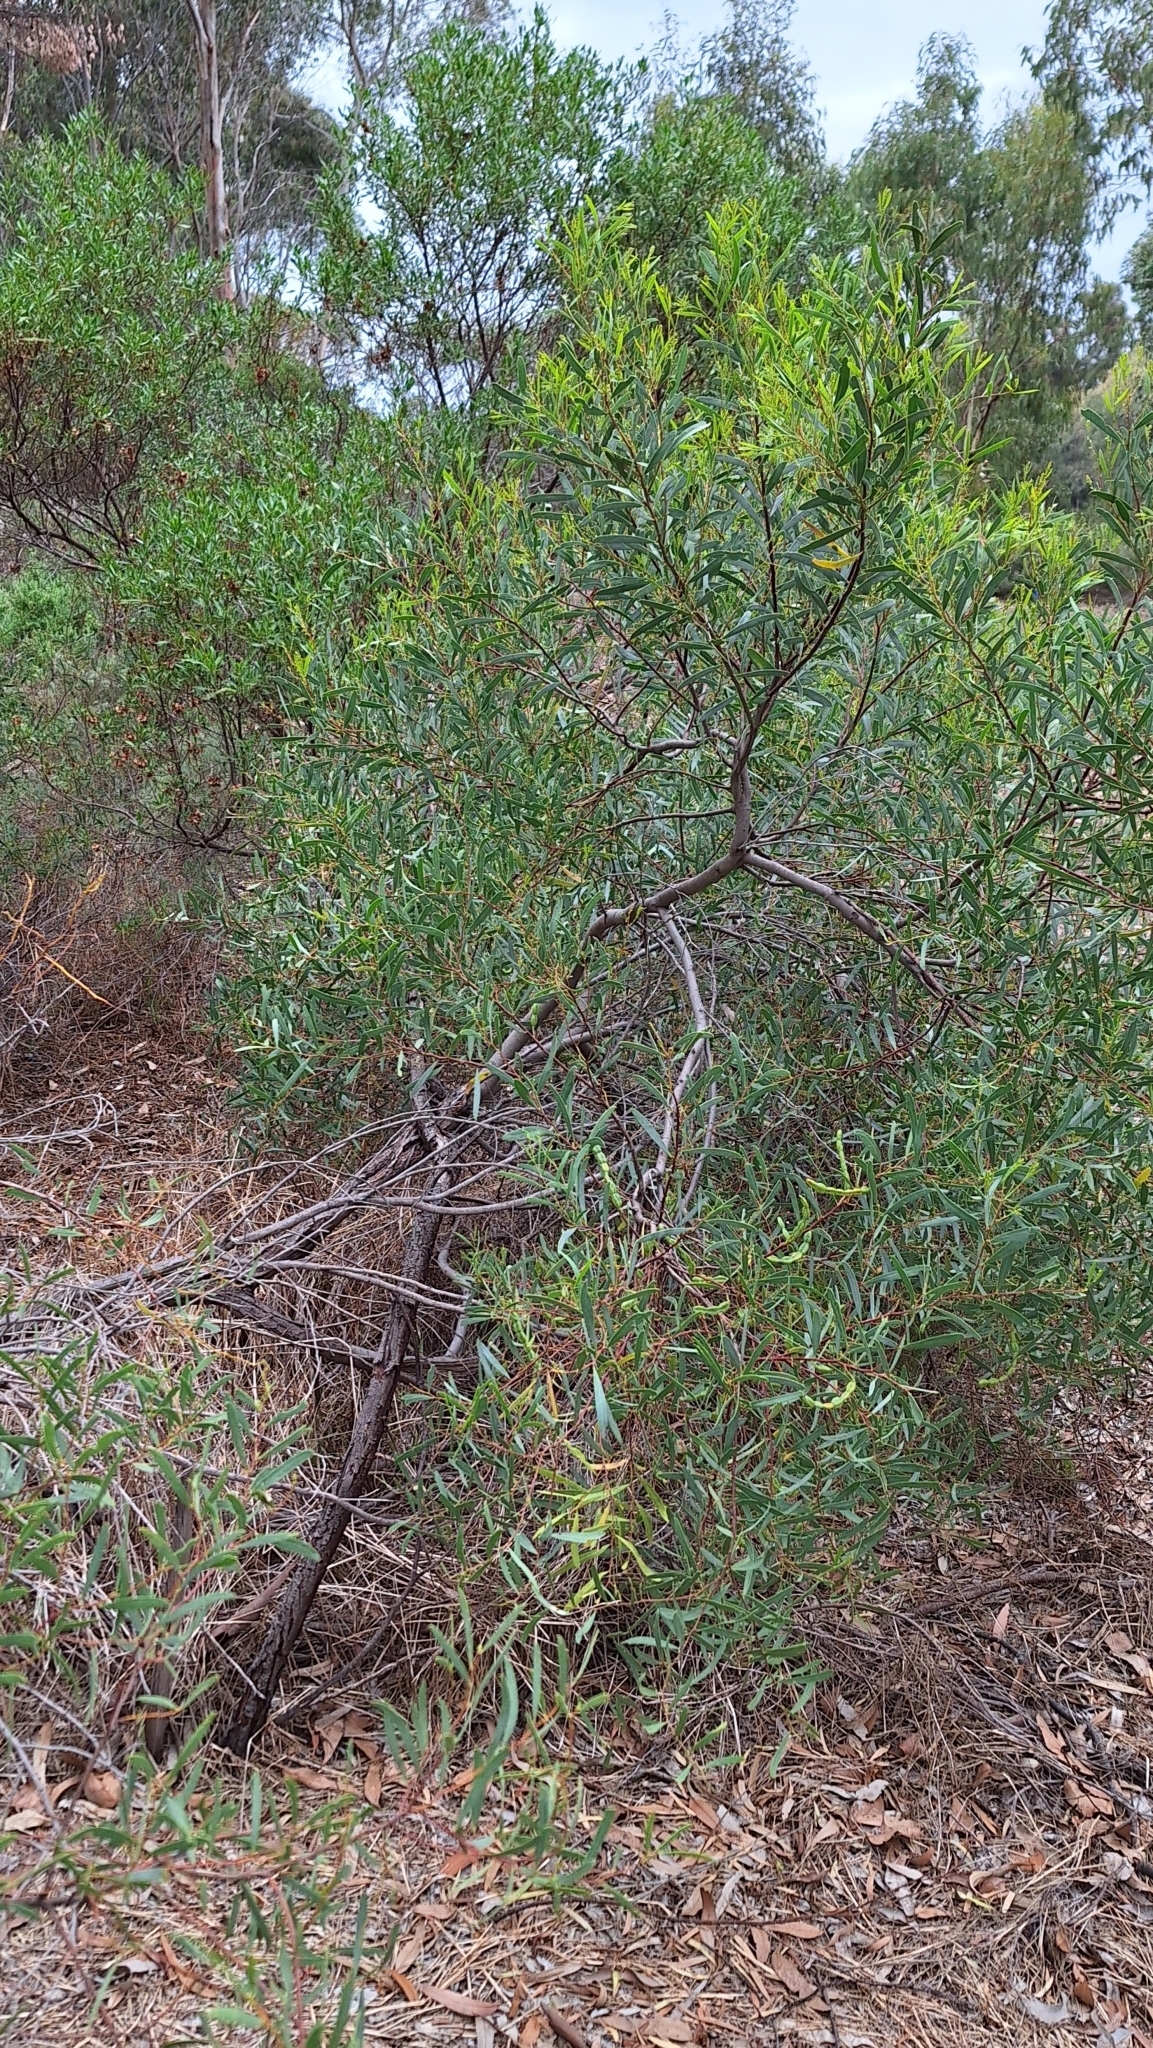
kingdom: Plantae
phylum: Tracheophyta
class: Magnoliopsida
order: Fabales
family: Fabaceae
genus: Acacia
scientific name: Acacia ligulata
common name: Dune wattle
